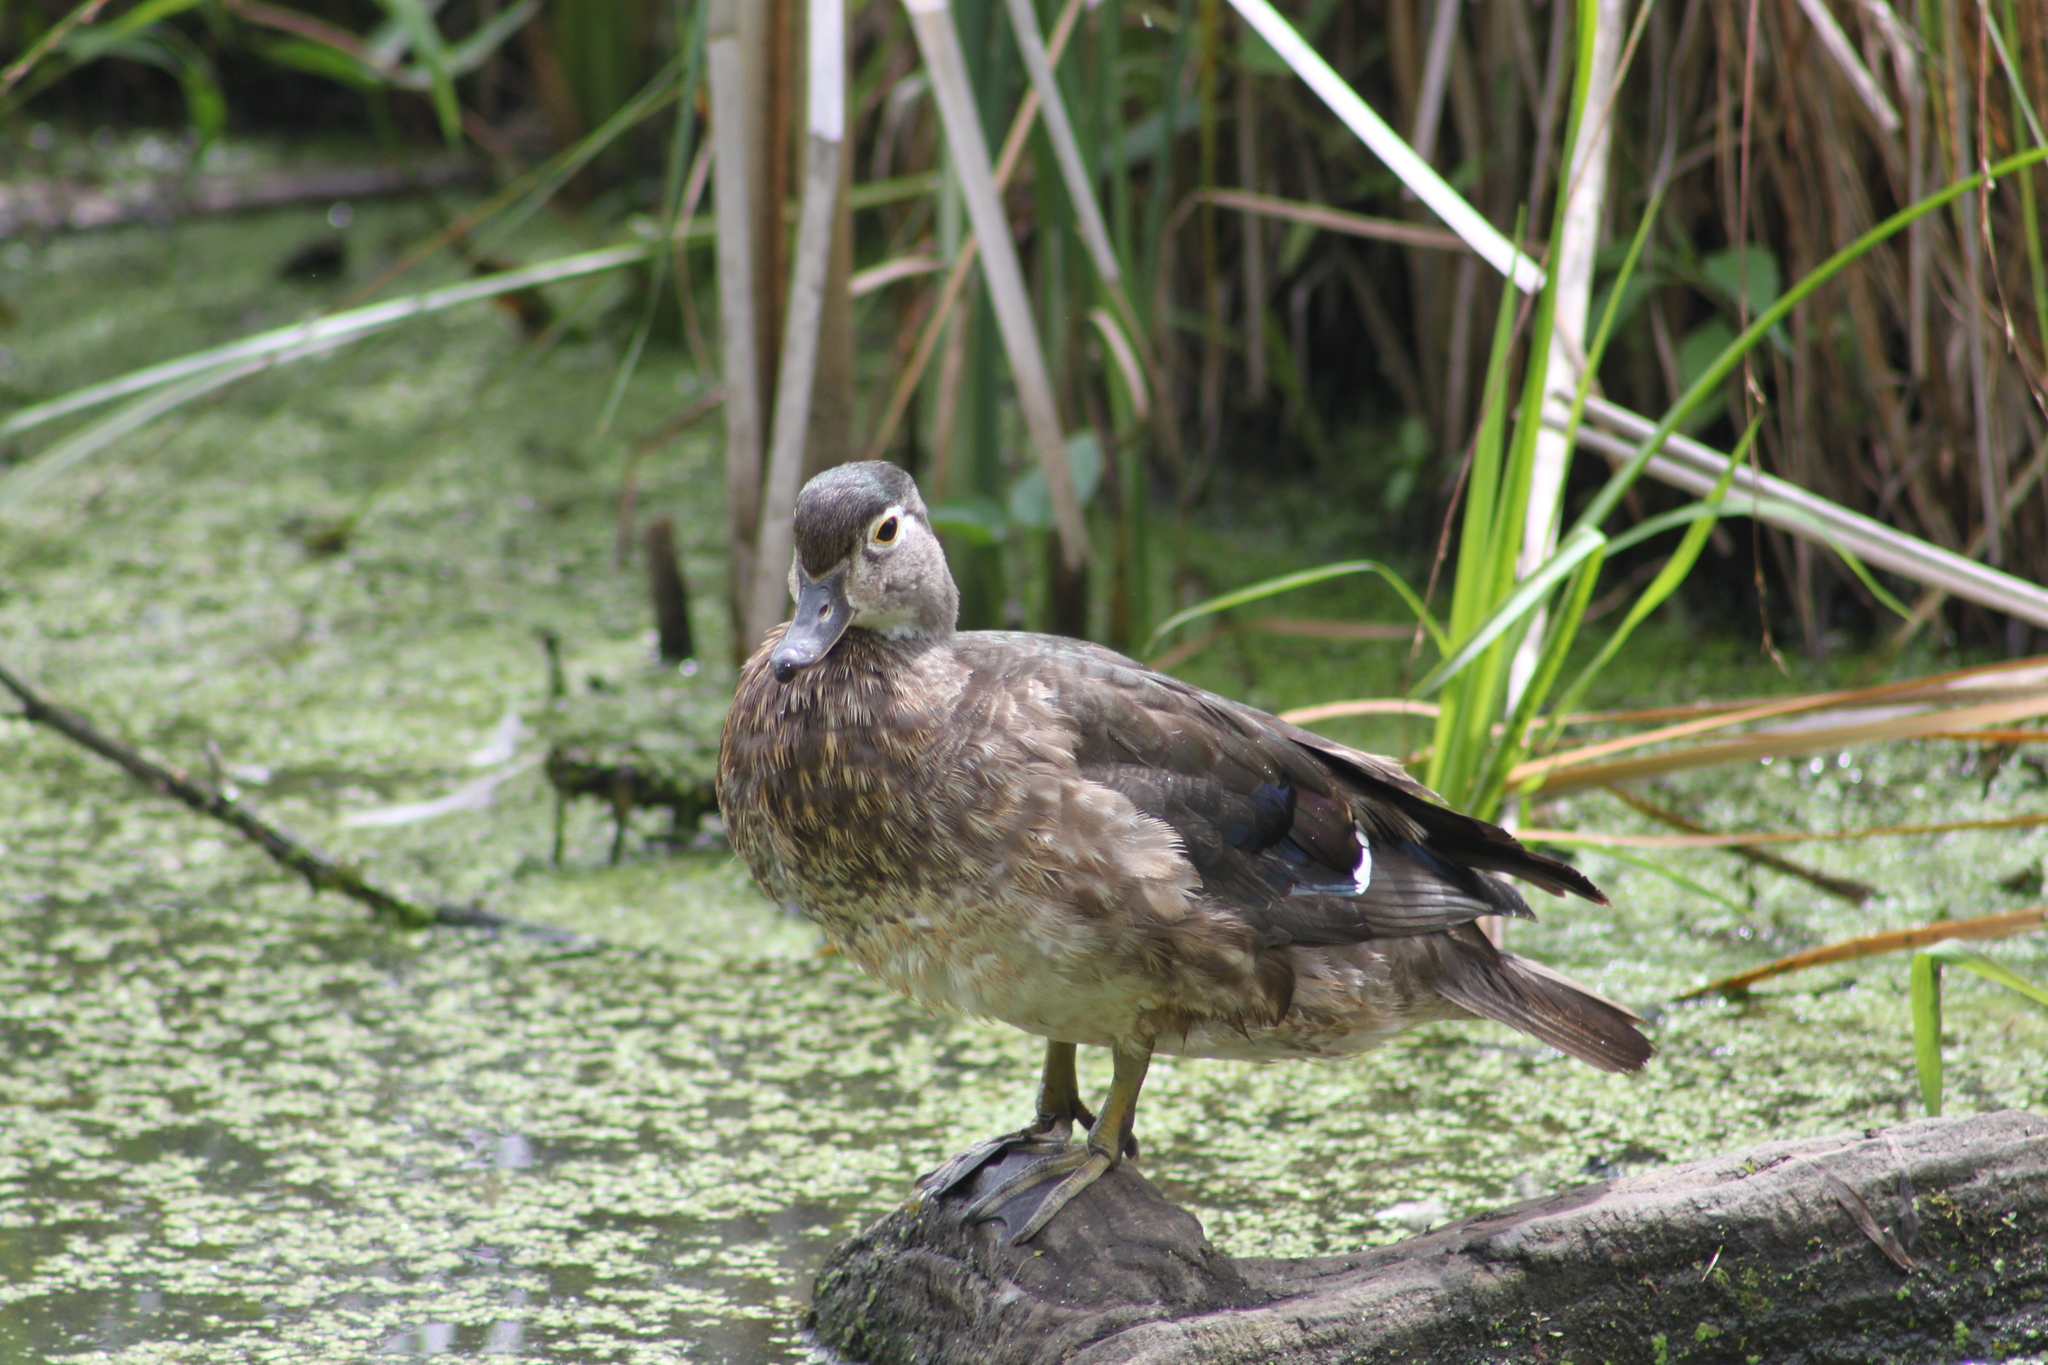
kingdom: Animalia
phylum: Chordata
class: Aves
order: Anseriformes
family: Anatidae
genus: Aix
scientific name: Aix sponsa
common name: Wood duck
